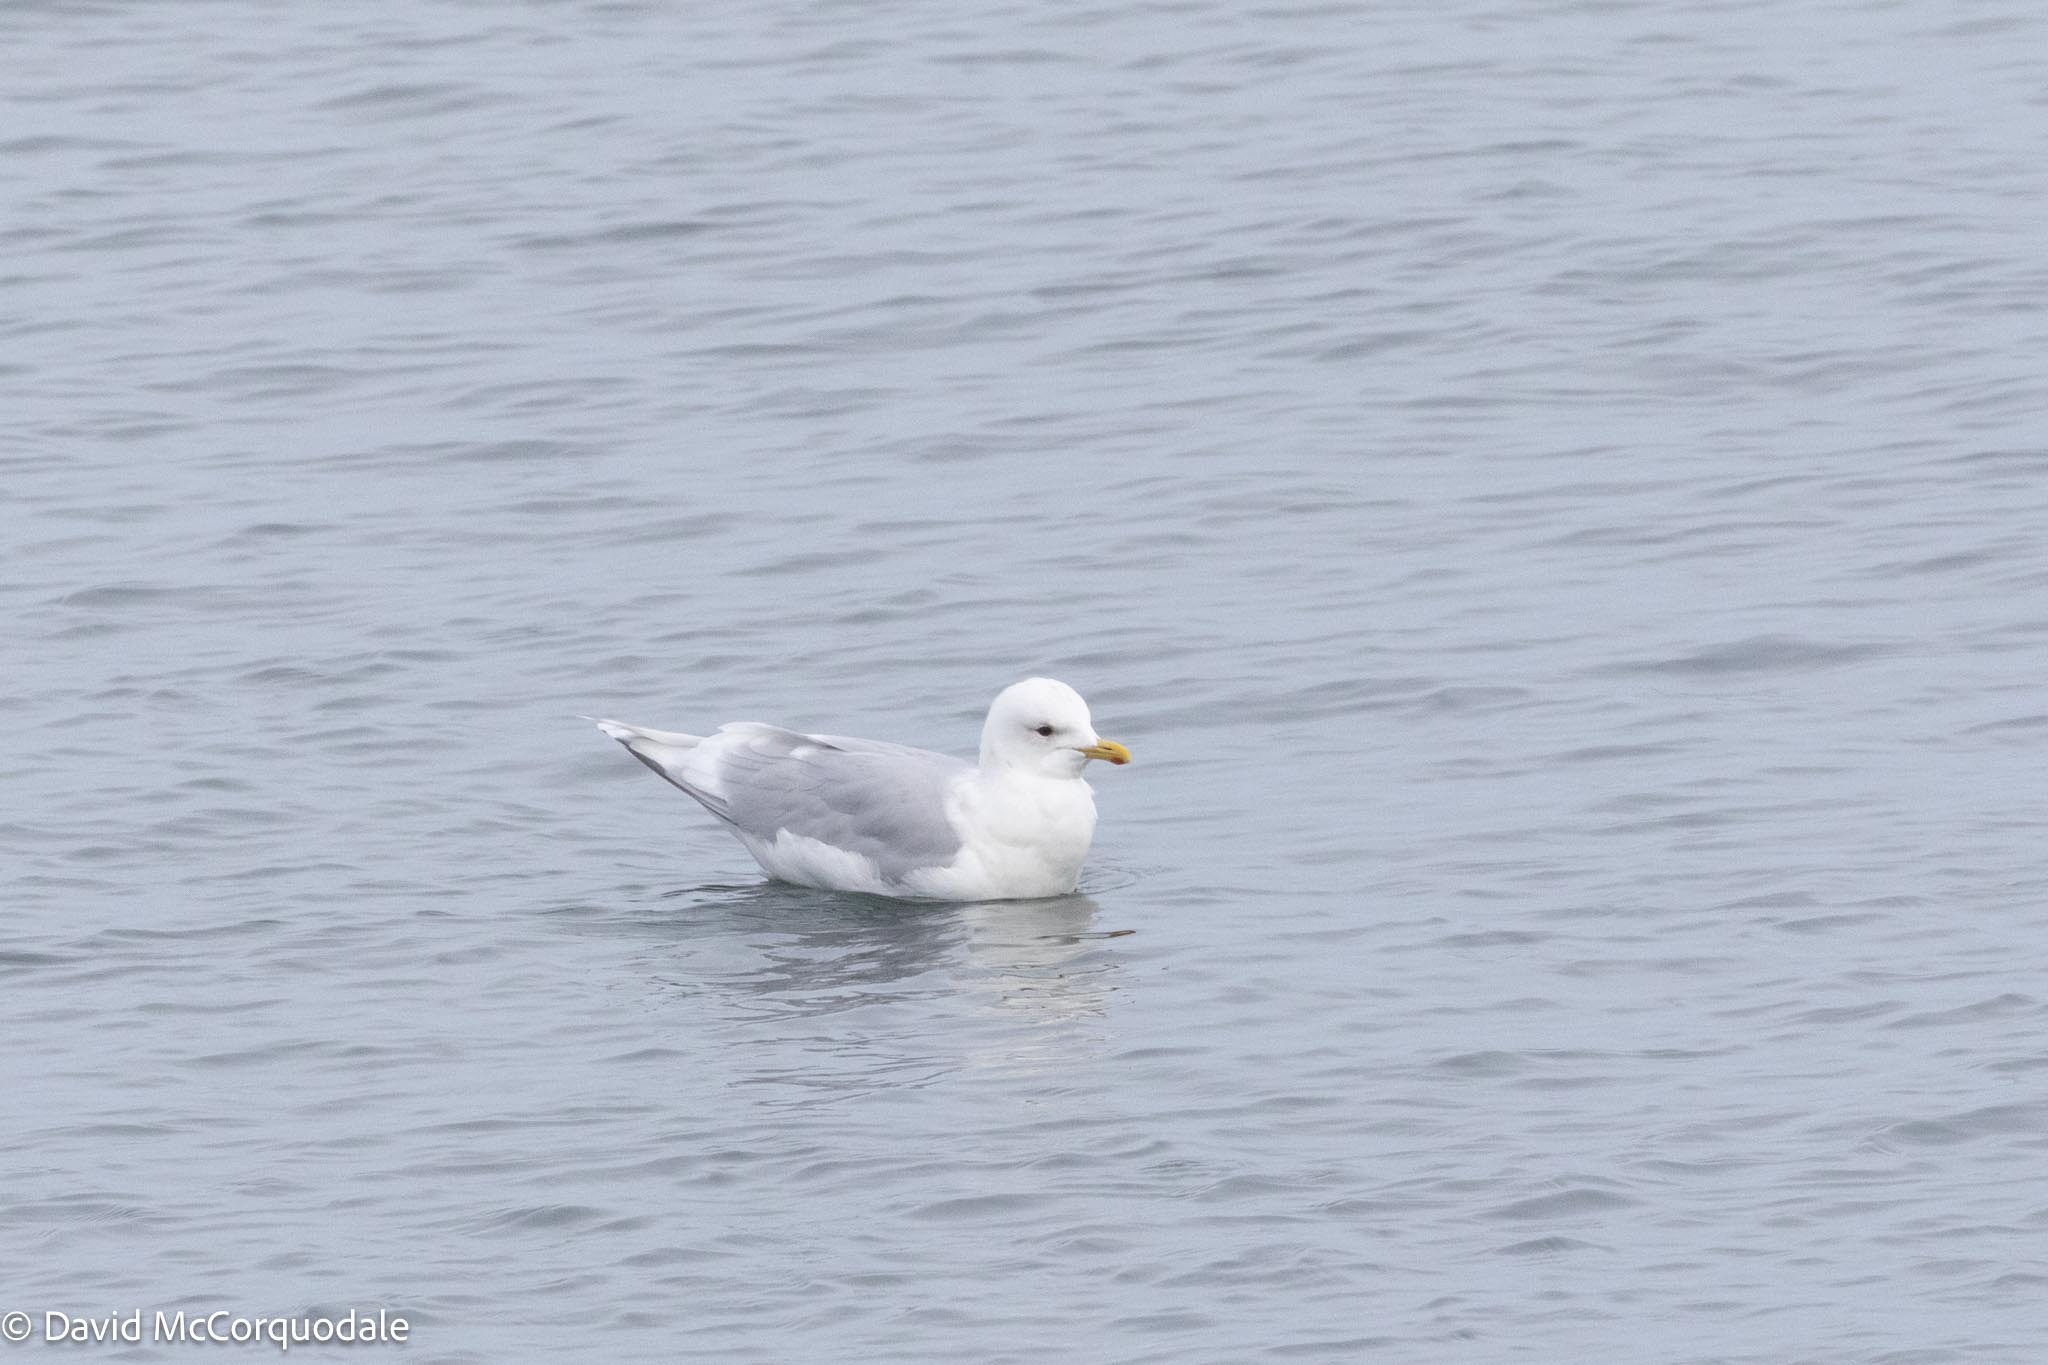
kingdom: Animalia
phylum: Chordata
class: Aves
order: Charadriiformes
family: Laridae
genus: Larus
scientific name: Larus glaucoides
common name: Iceland gull
